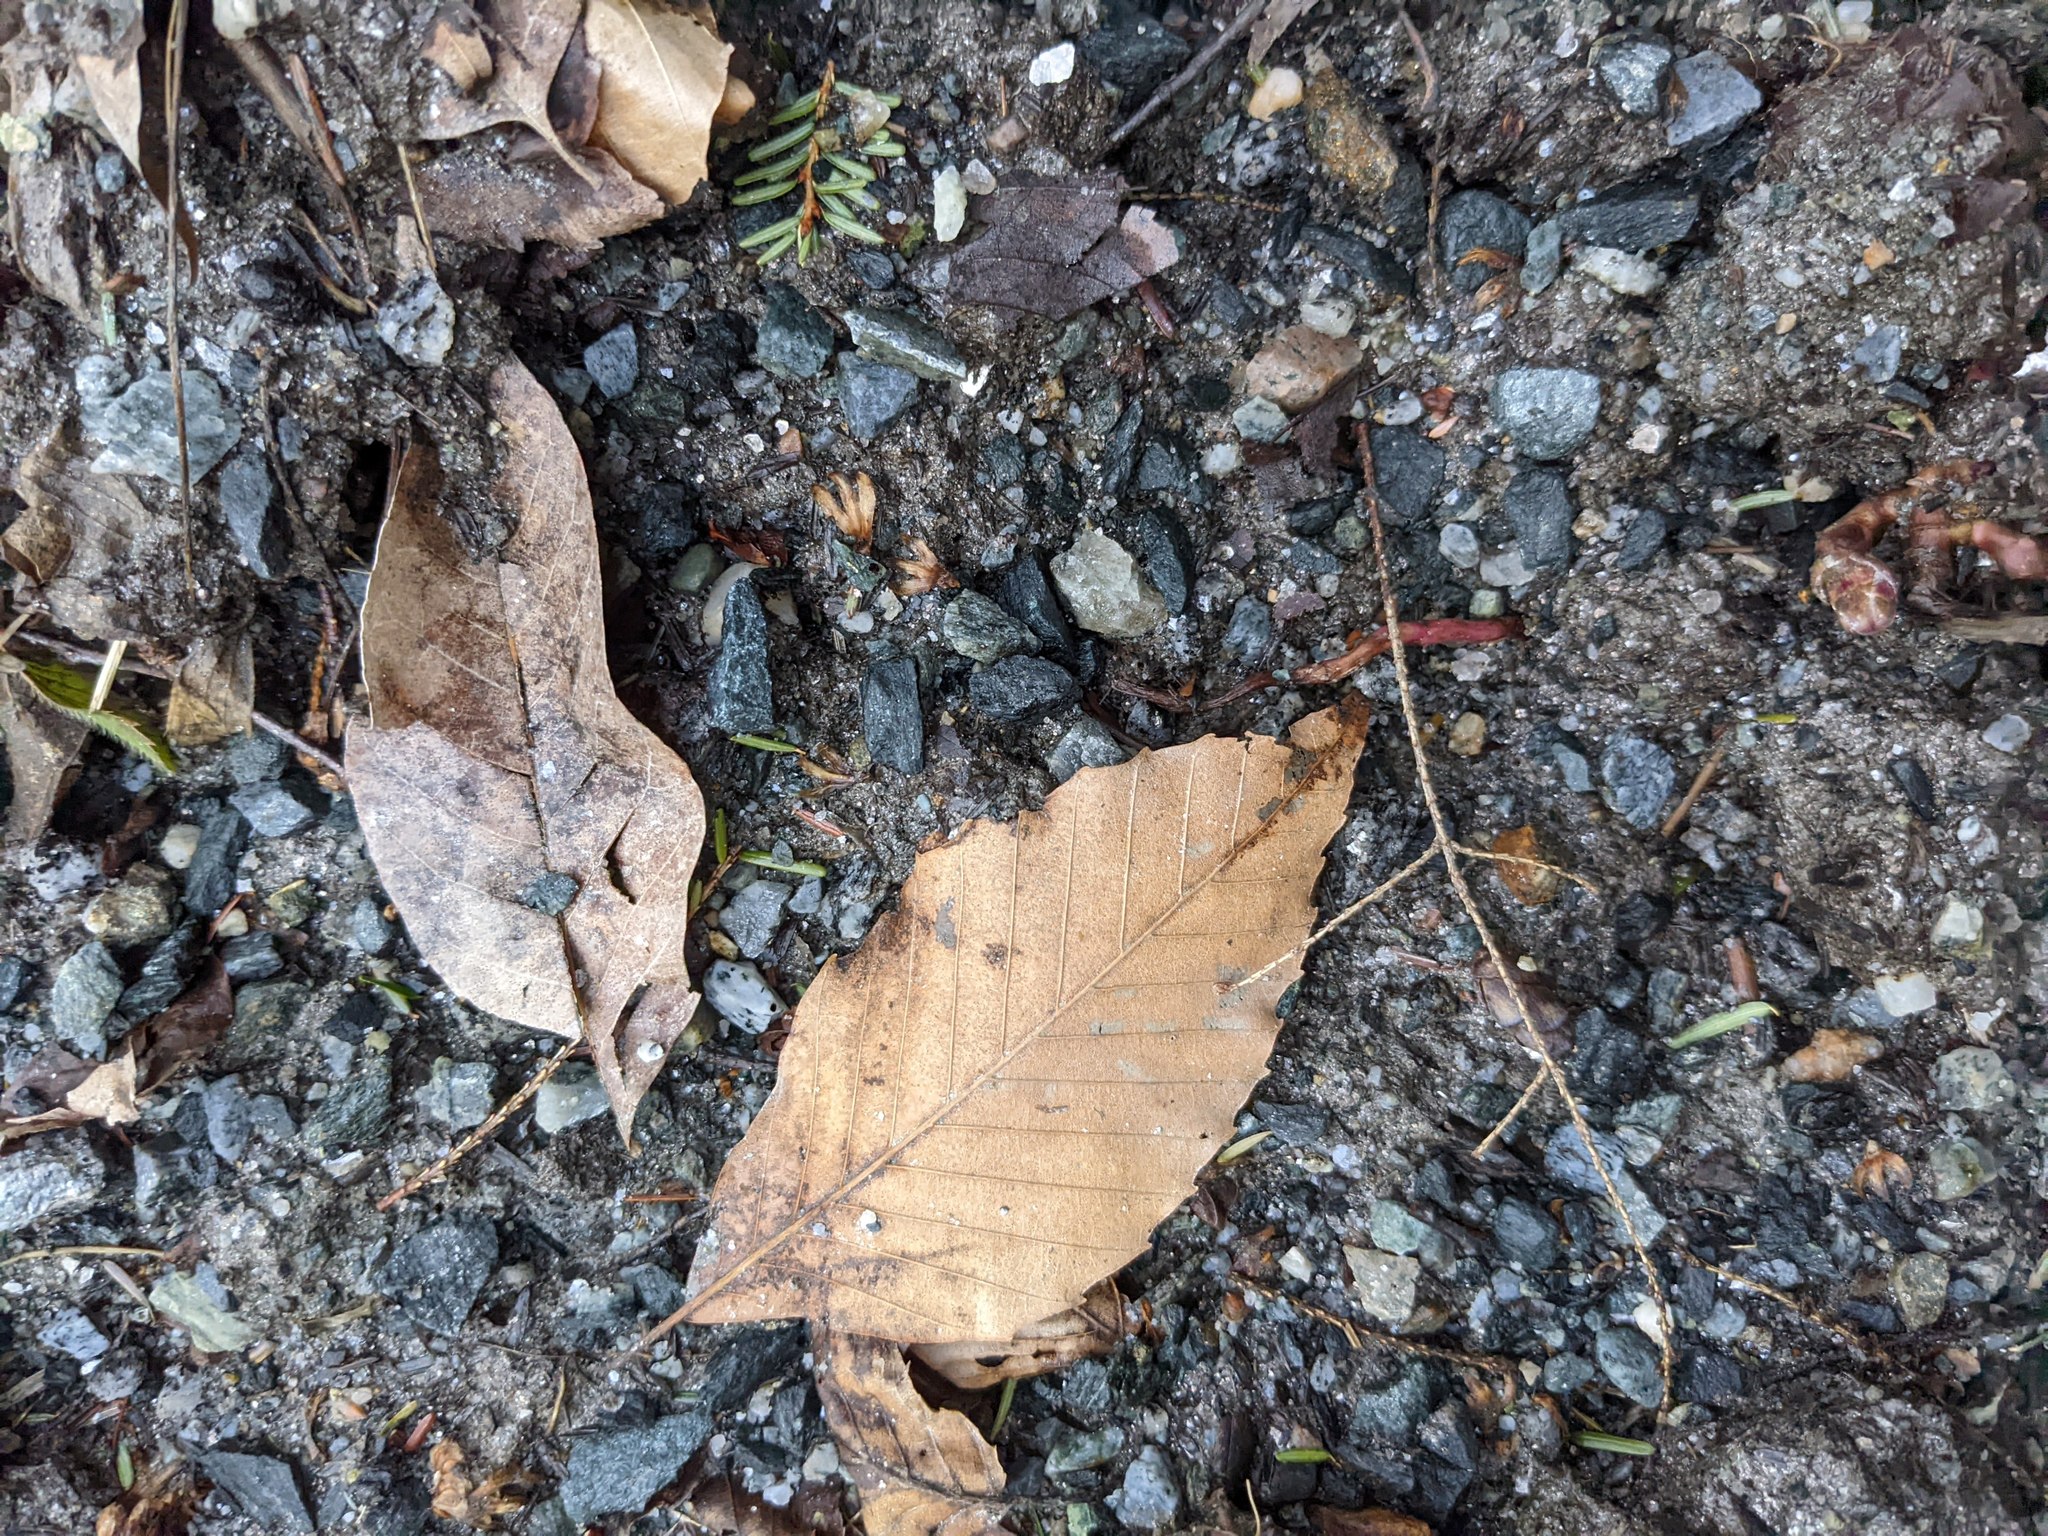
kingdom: Plantae
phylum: Tracheophyta
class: Magnoliopsida
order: Fagales
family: Fagaceae
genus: Fagus
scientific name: Fagus grandifolia
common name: American beech
